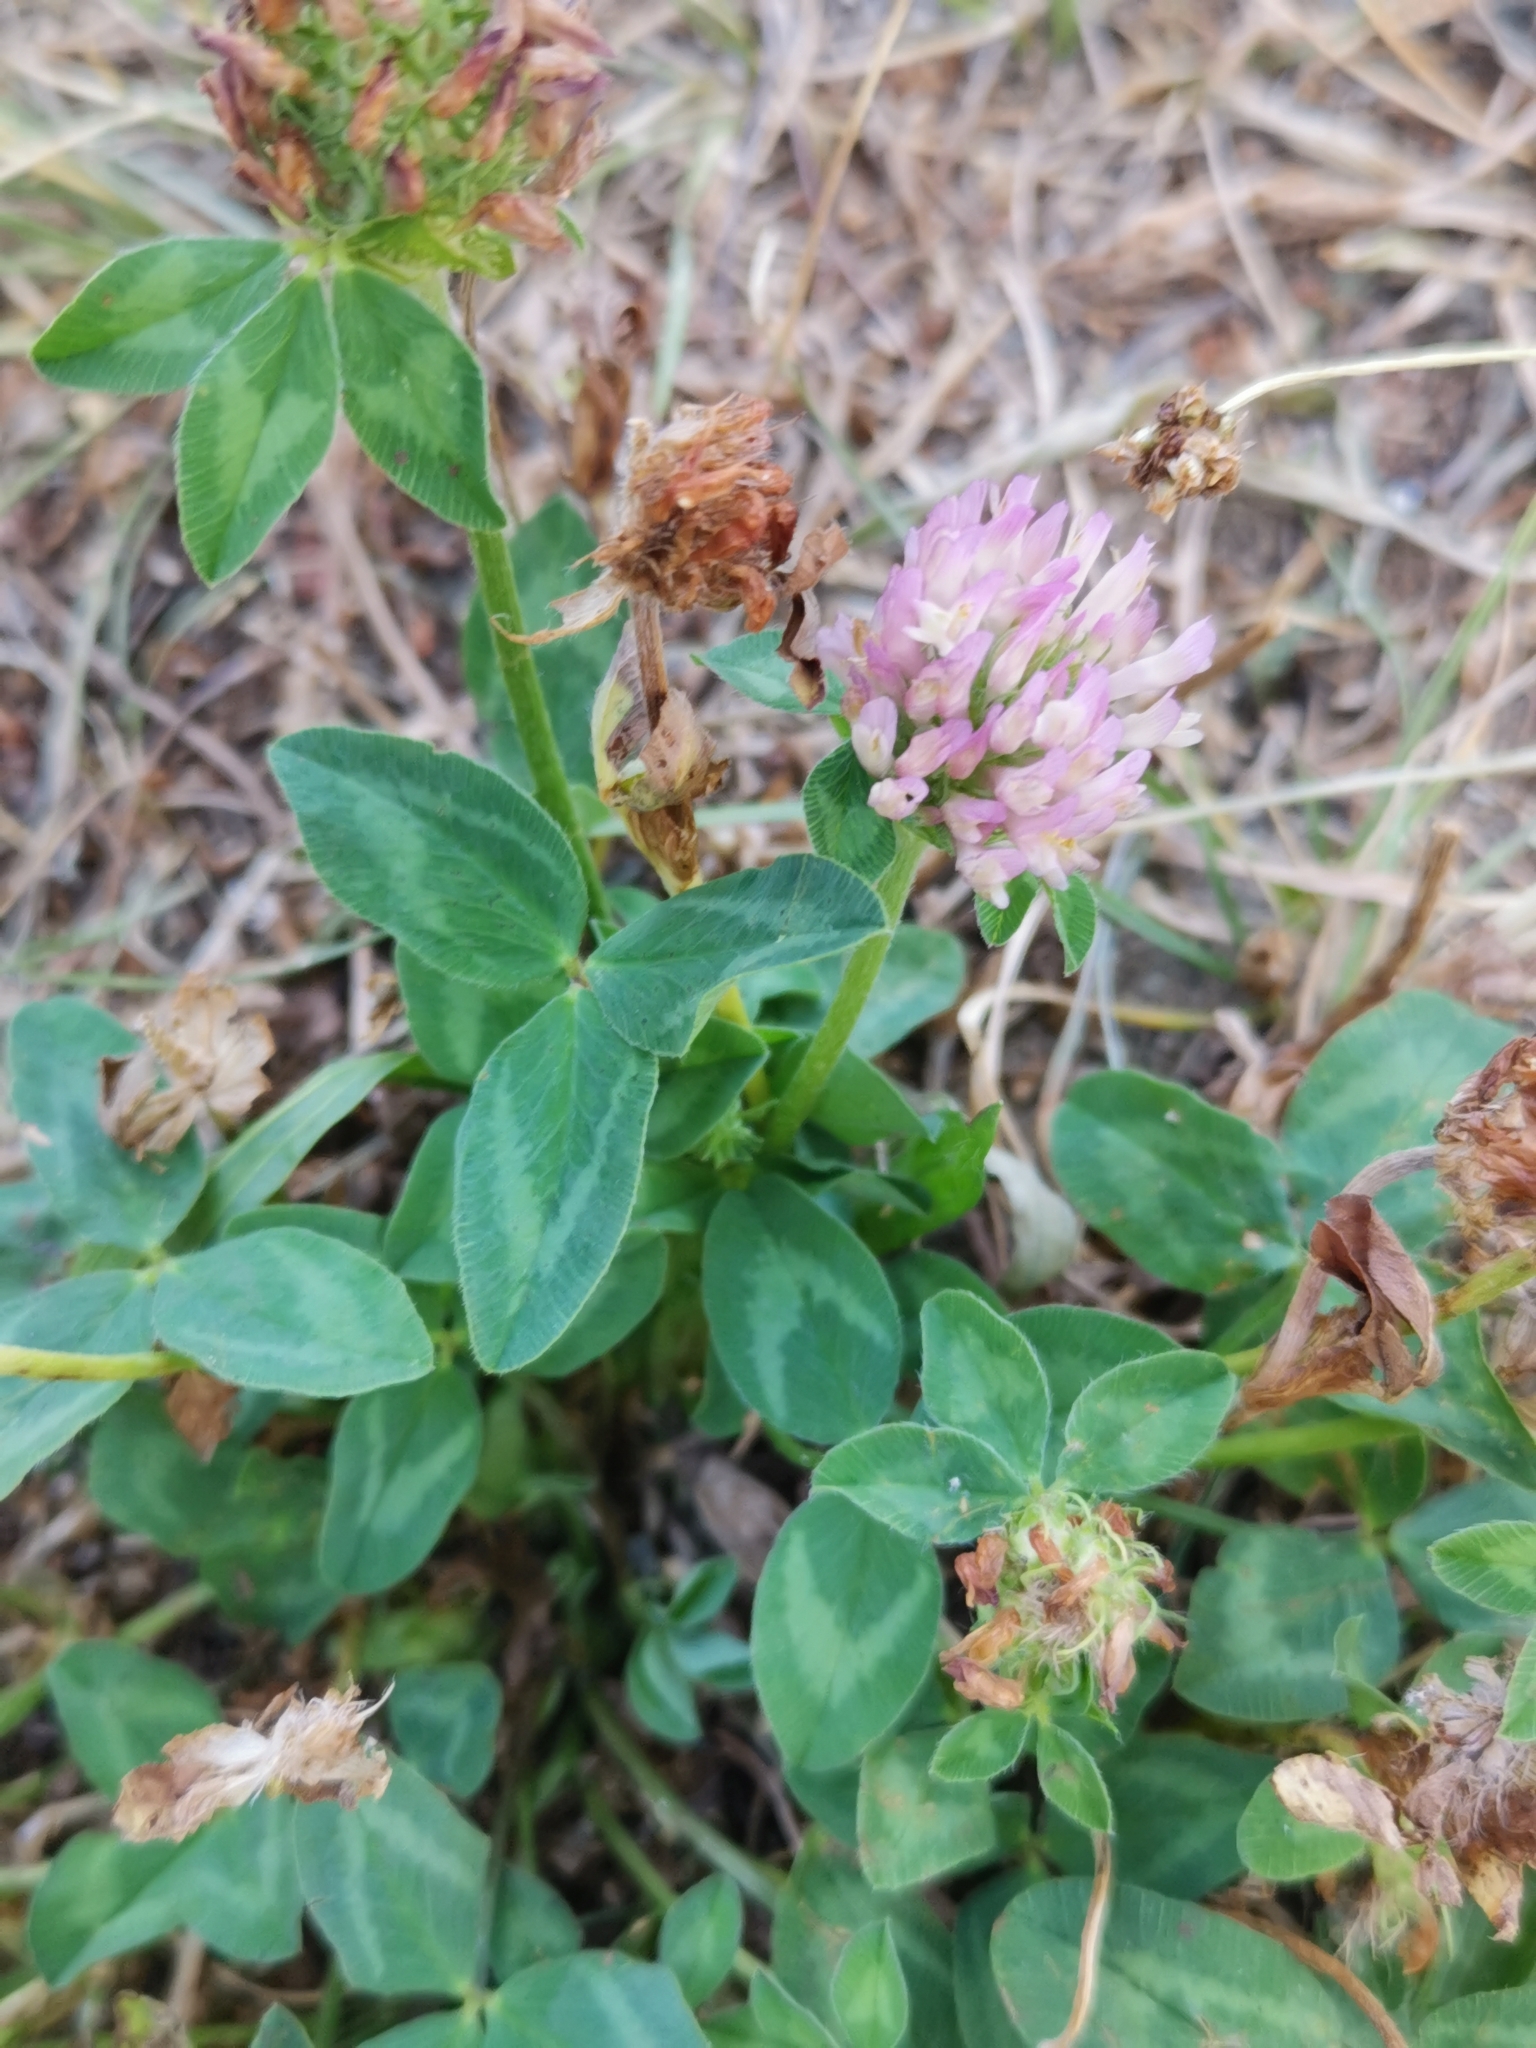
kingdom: Plantae
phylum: Tracheophyta
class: Magnoliopsida
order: Fabales
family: Fabaceae
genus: Trifolium
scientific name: Trifolium pratense
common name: Red clover
